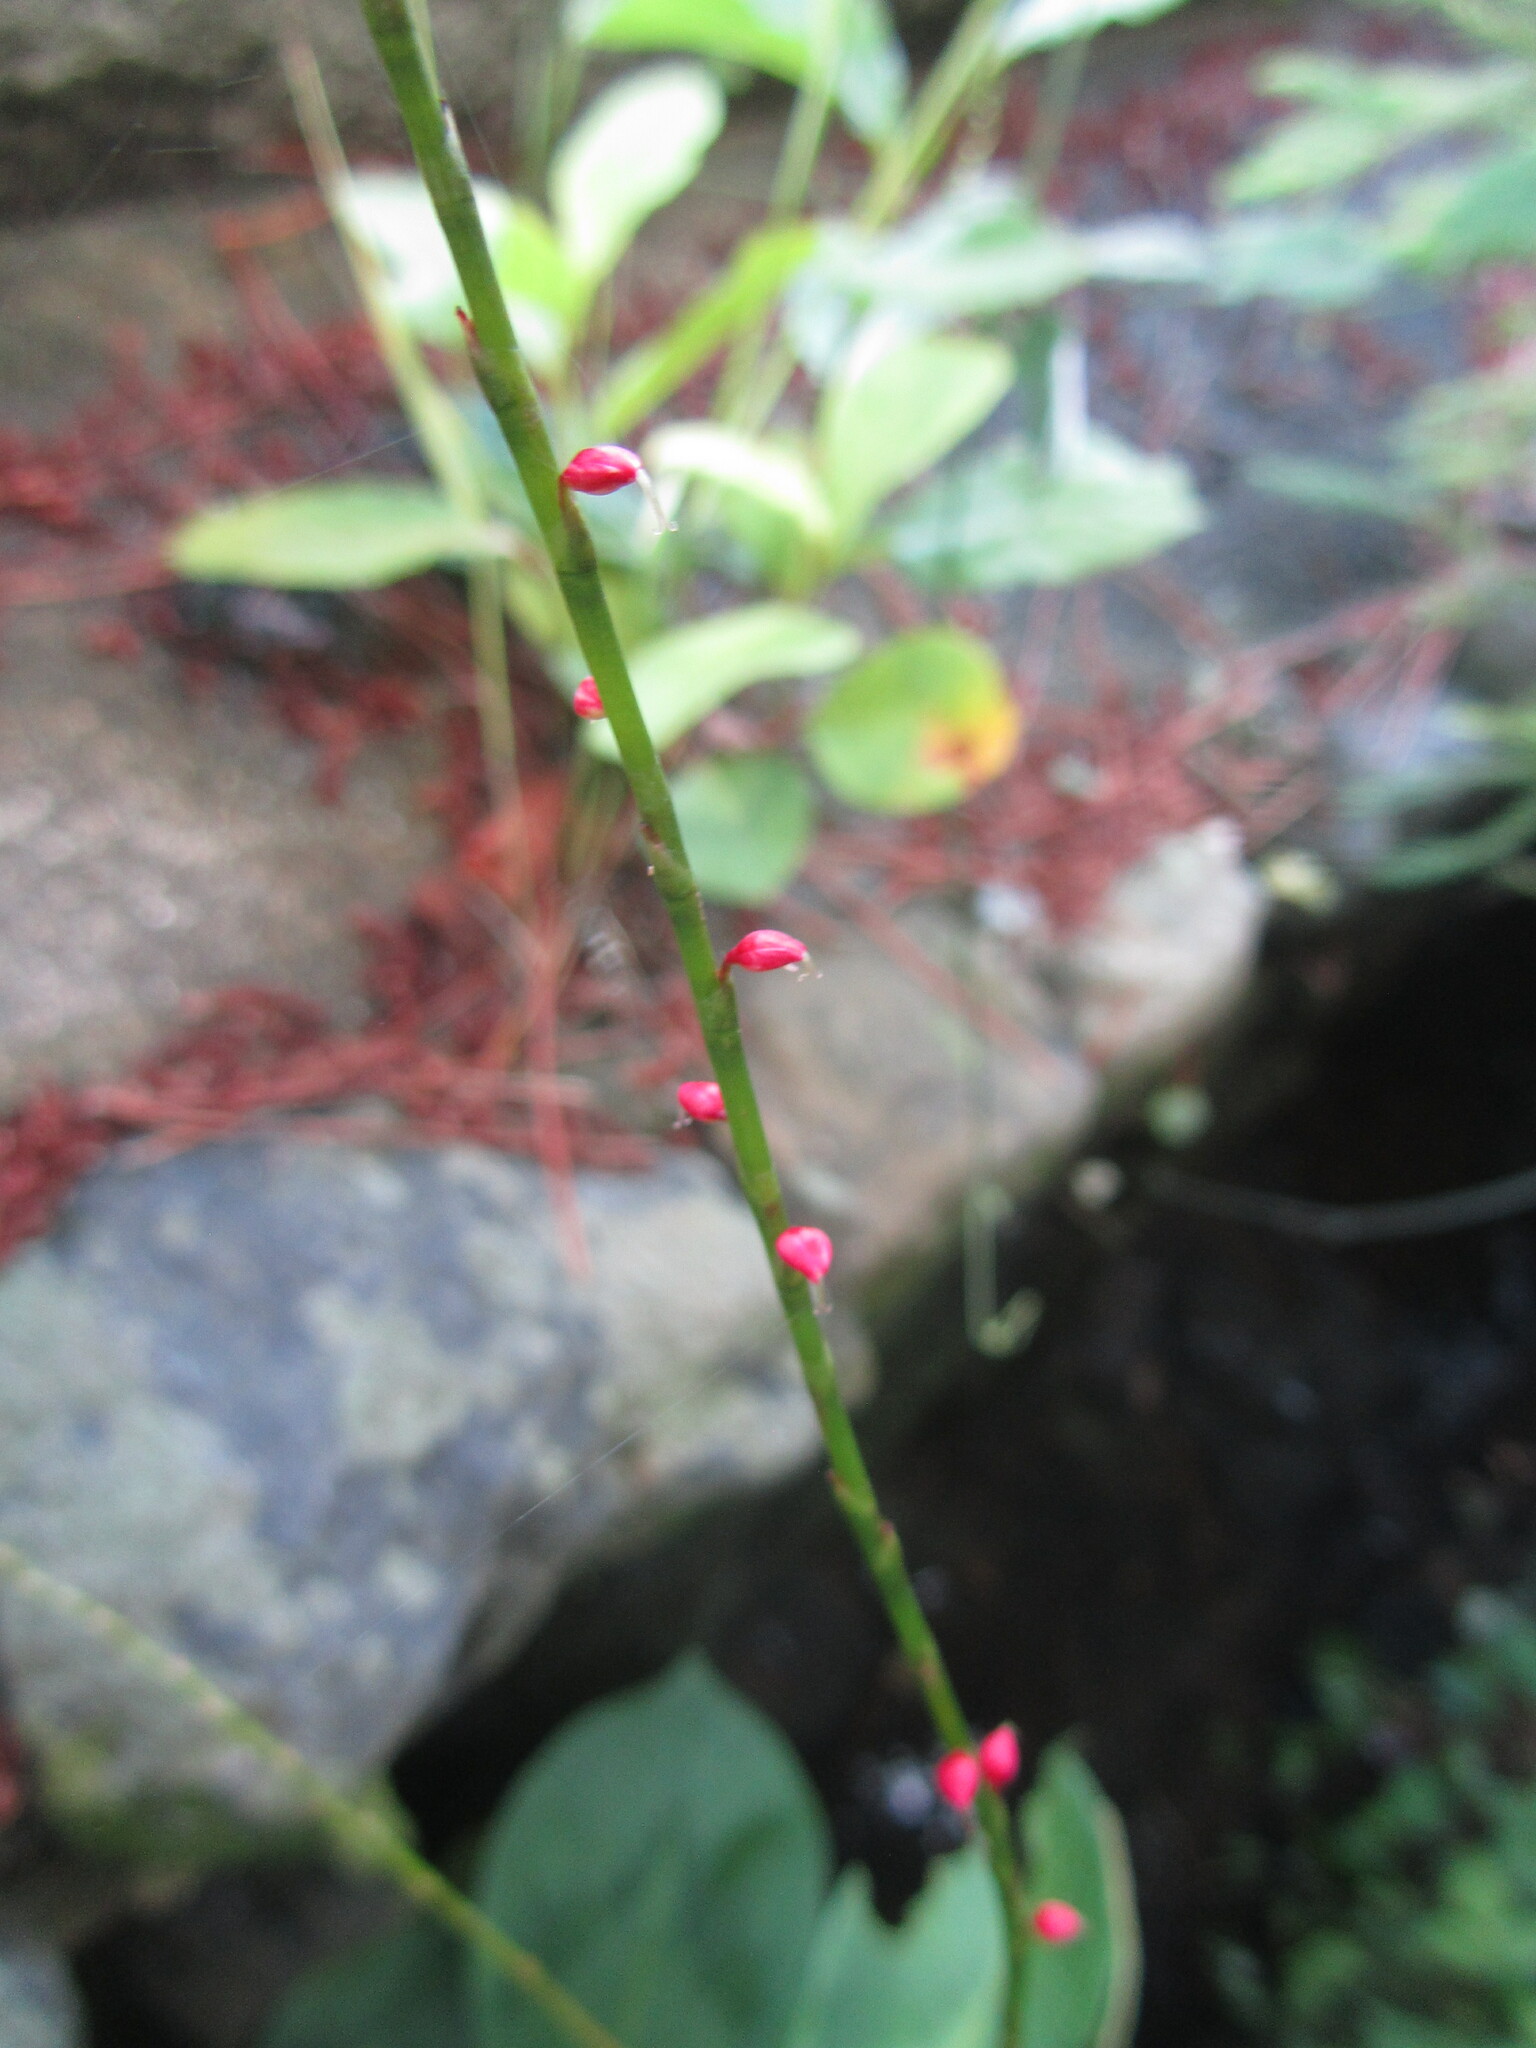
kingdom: Plantae
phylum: Tracheophyta
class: Magnoliopsida
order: Caryophyllales
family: Polygonaceae
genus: Persicaria
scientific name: Persicaria filiformis
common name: Asian jumpseed
